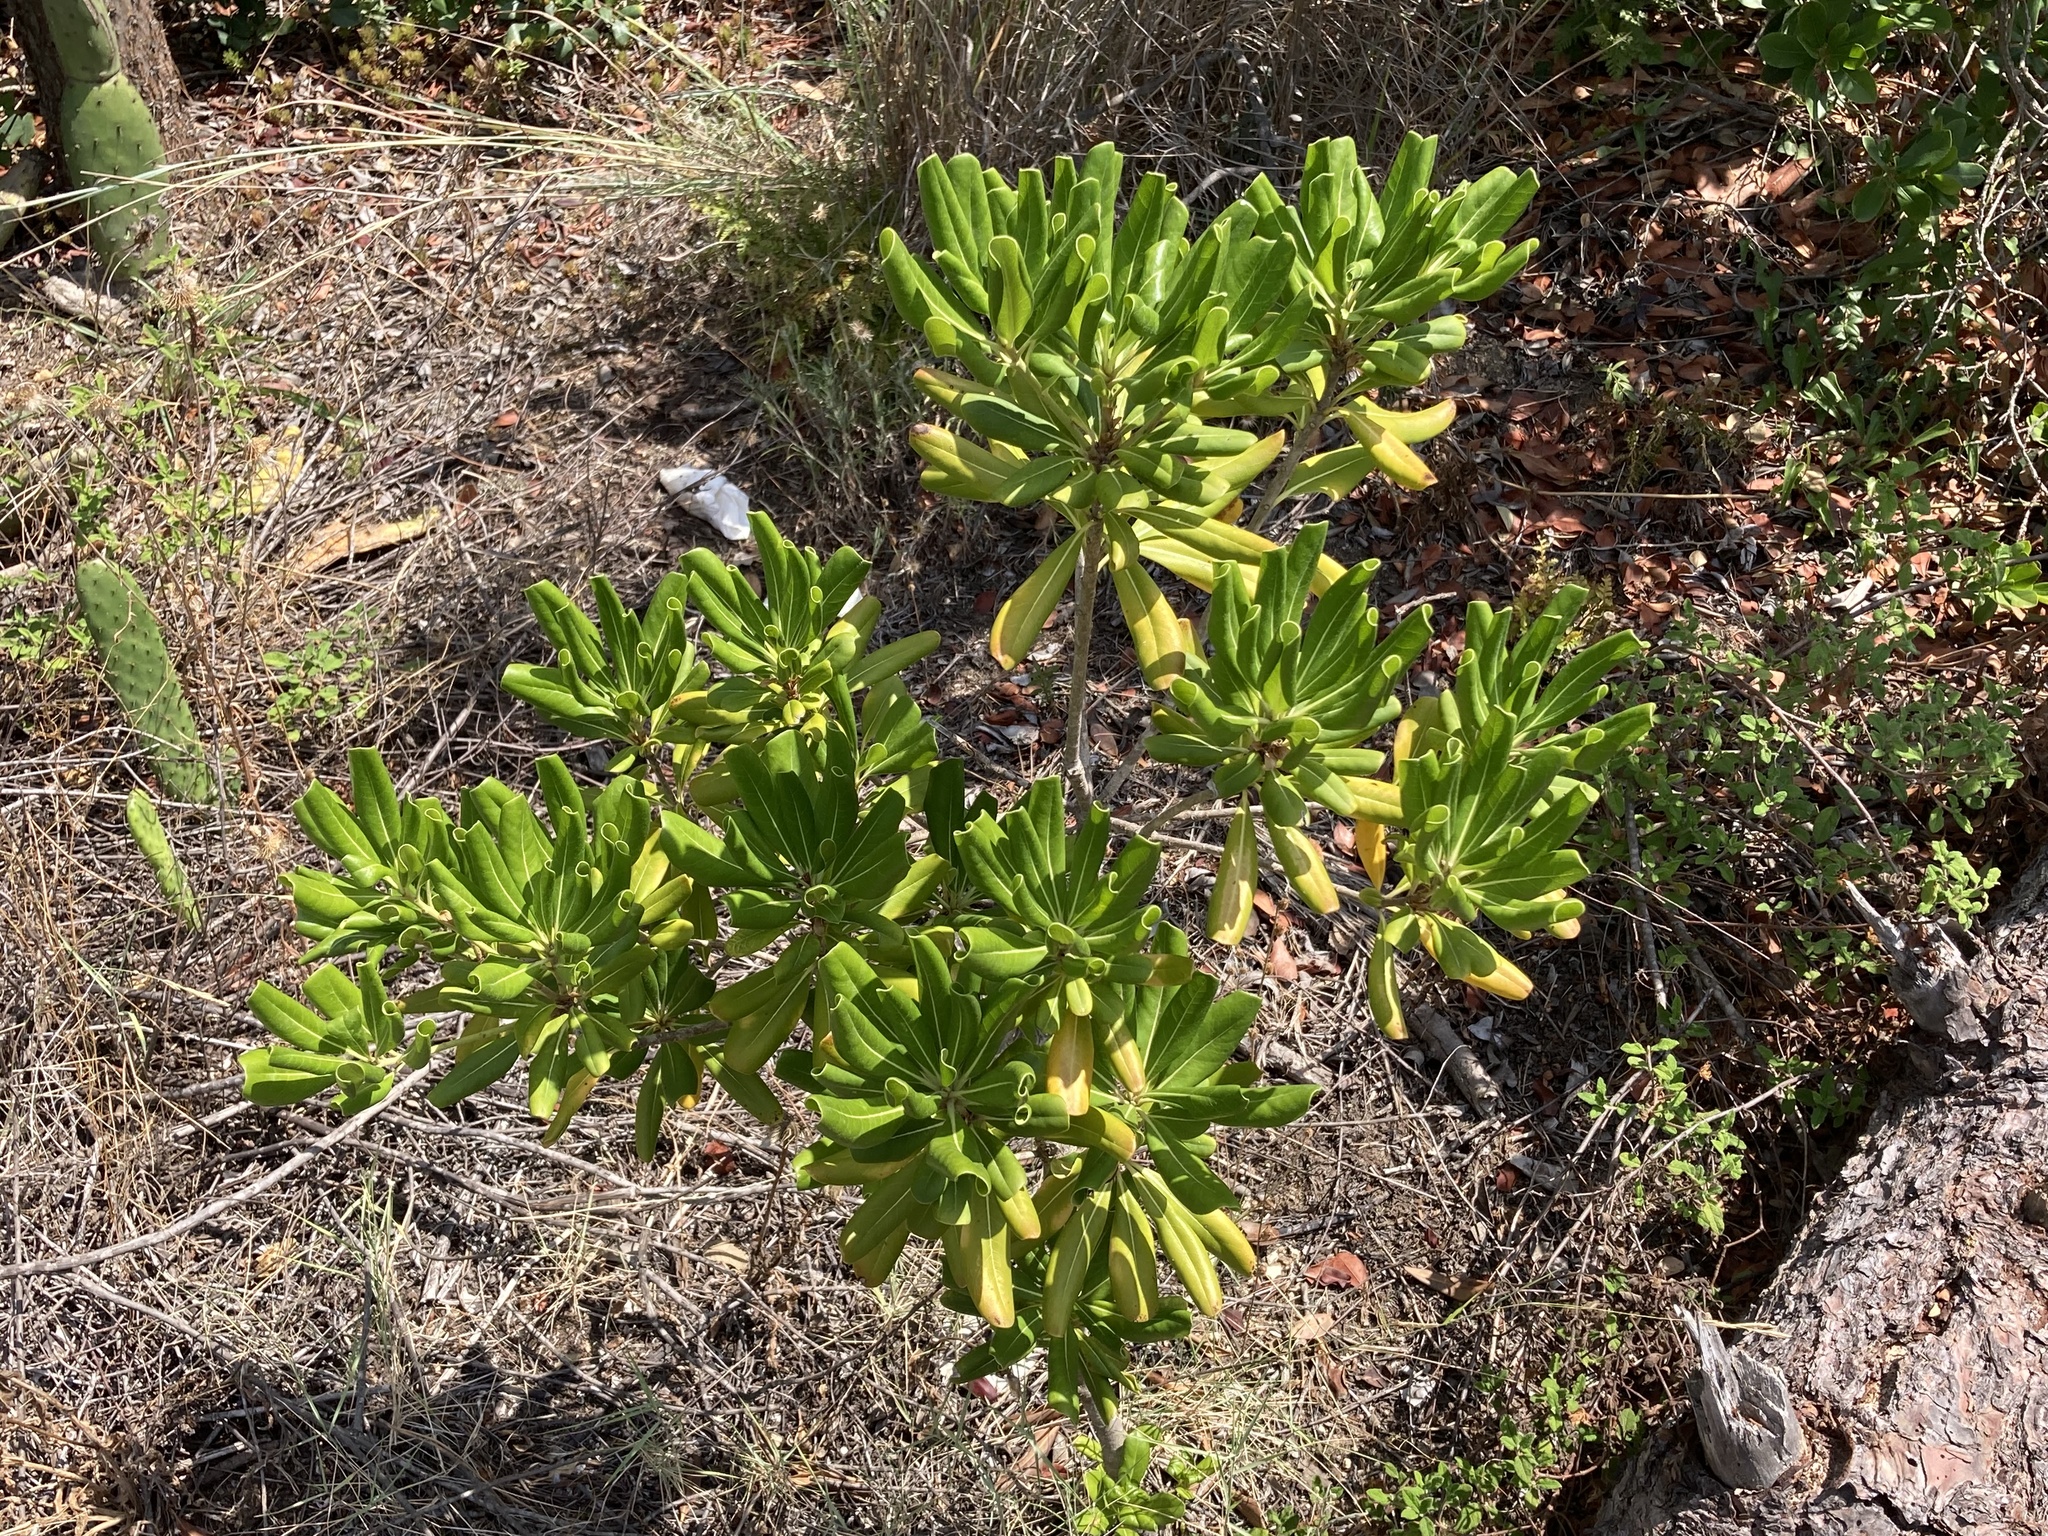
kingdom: Plantae
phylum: Tracheophyta
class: Magnoliopsida
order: Apiales
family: Pittosporaceae
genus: Pittosporum
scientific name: Pittosporum tobira
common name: Japanese cheesewood
